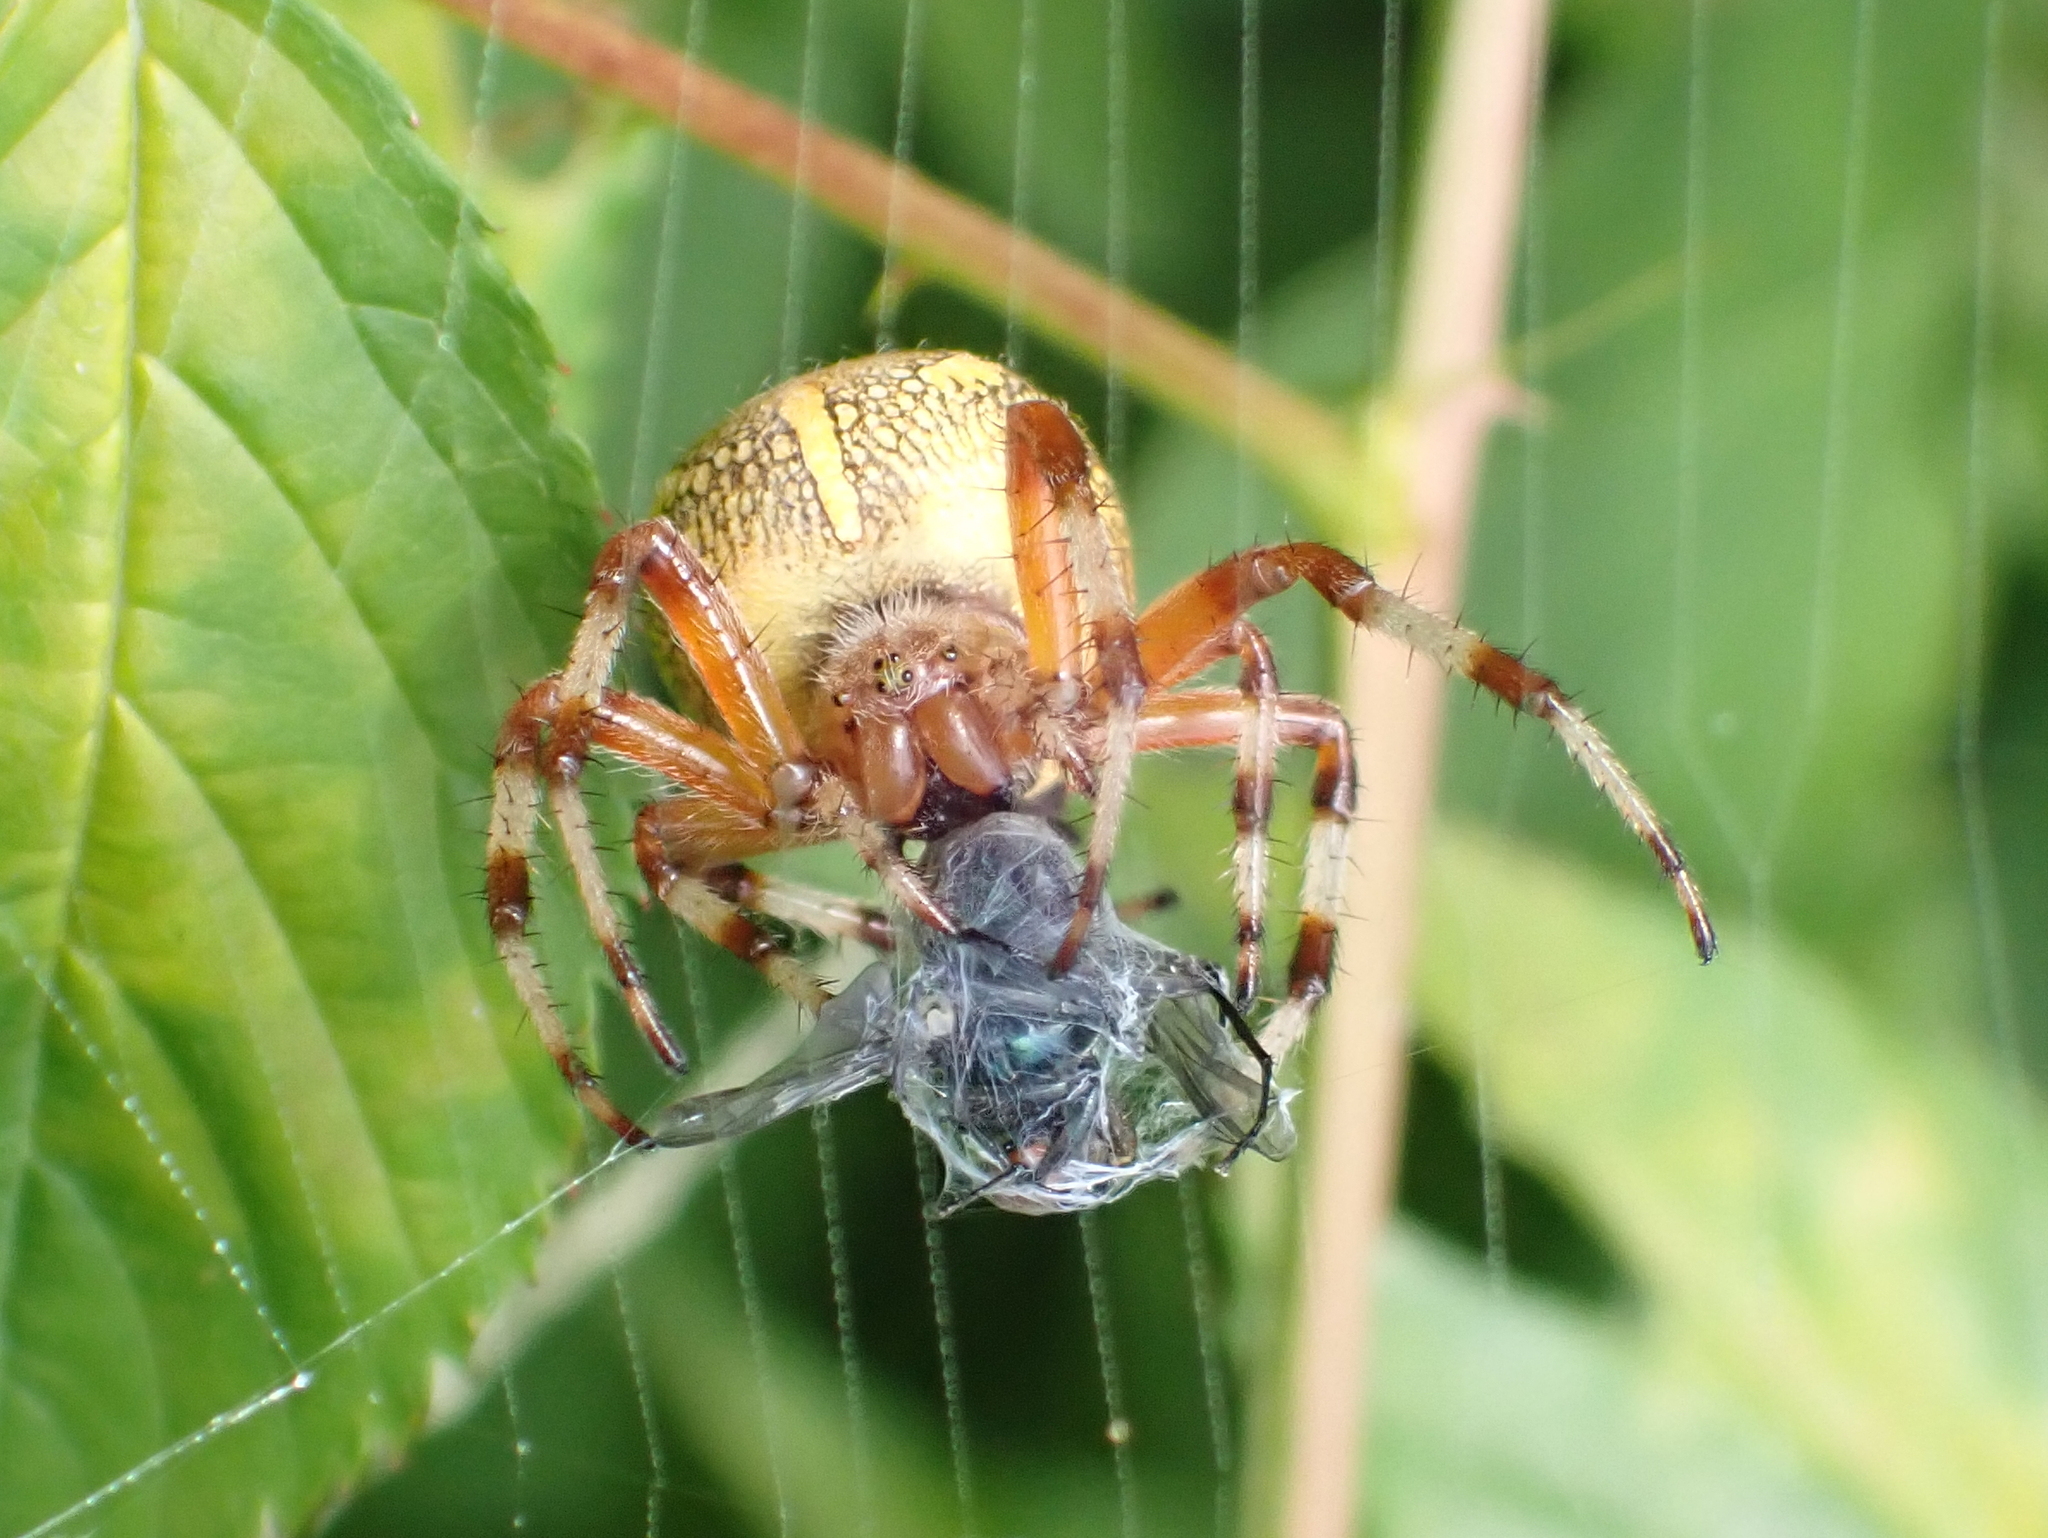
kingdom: Animalia
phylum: Arthropoda
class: Arachnida
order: Araneae
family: Araneidae
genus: Araneus
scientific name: Araneus marmoreus
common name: Marbled orbweaver
